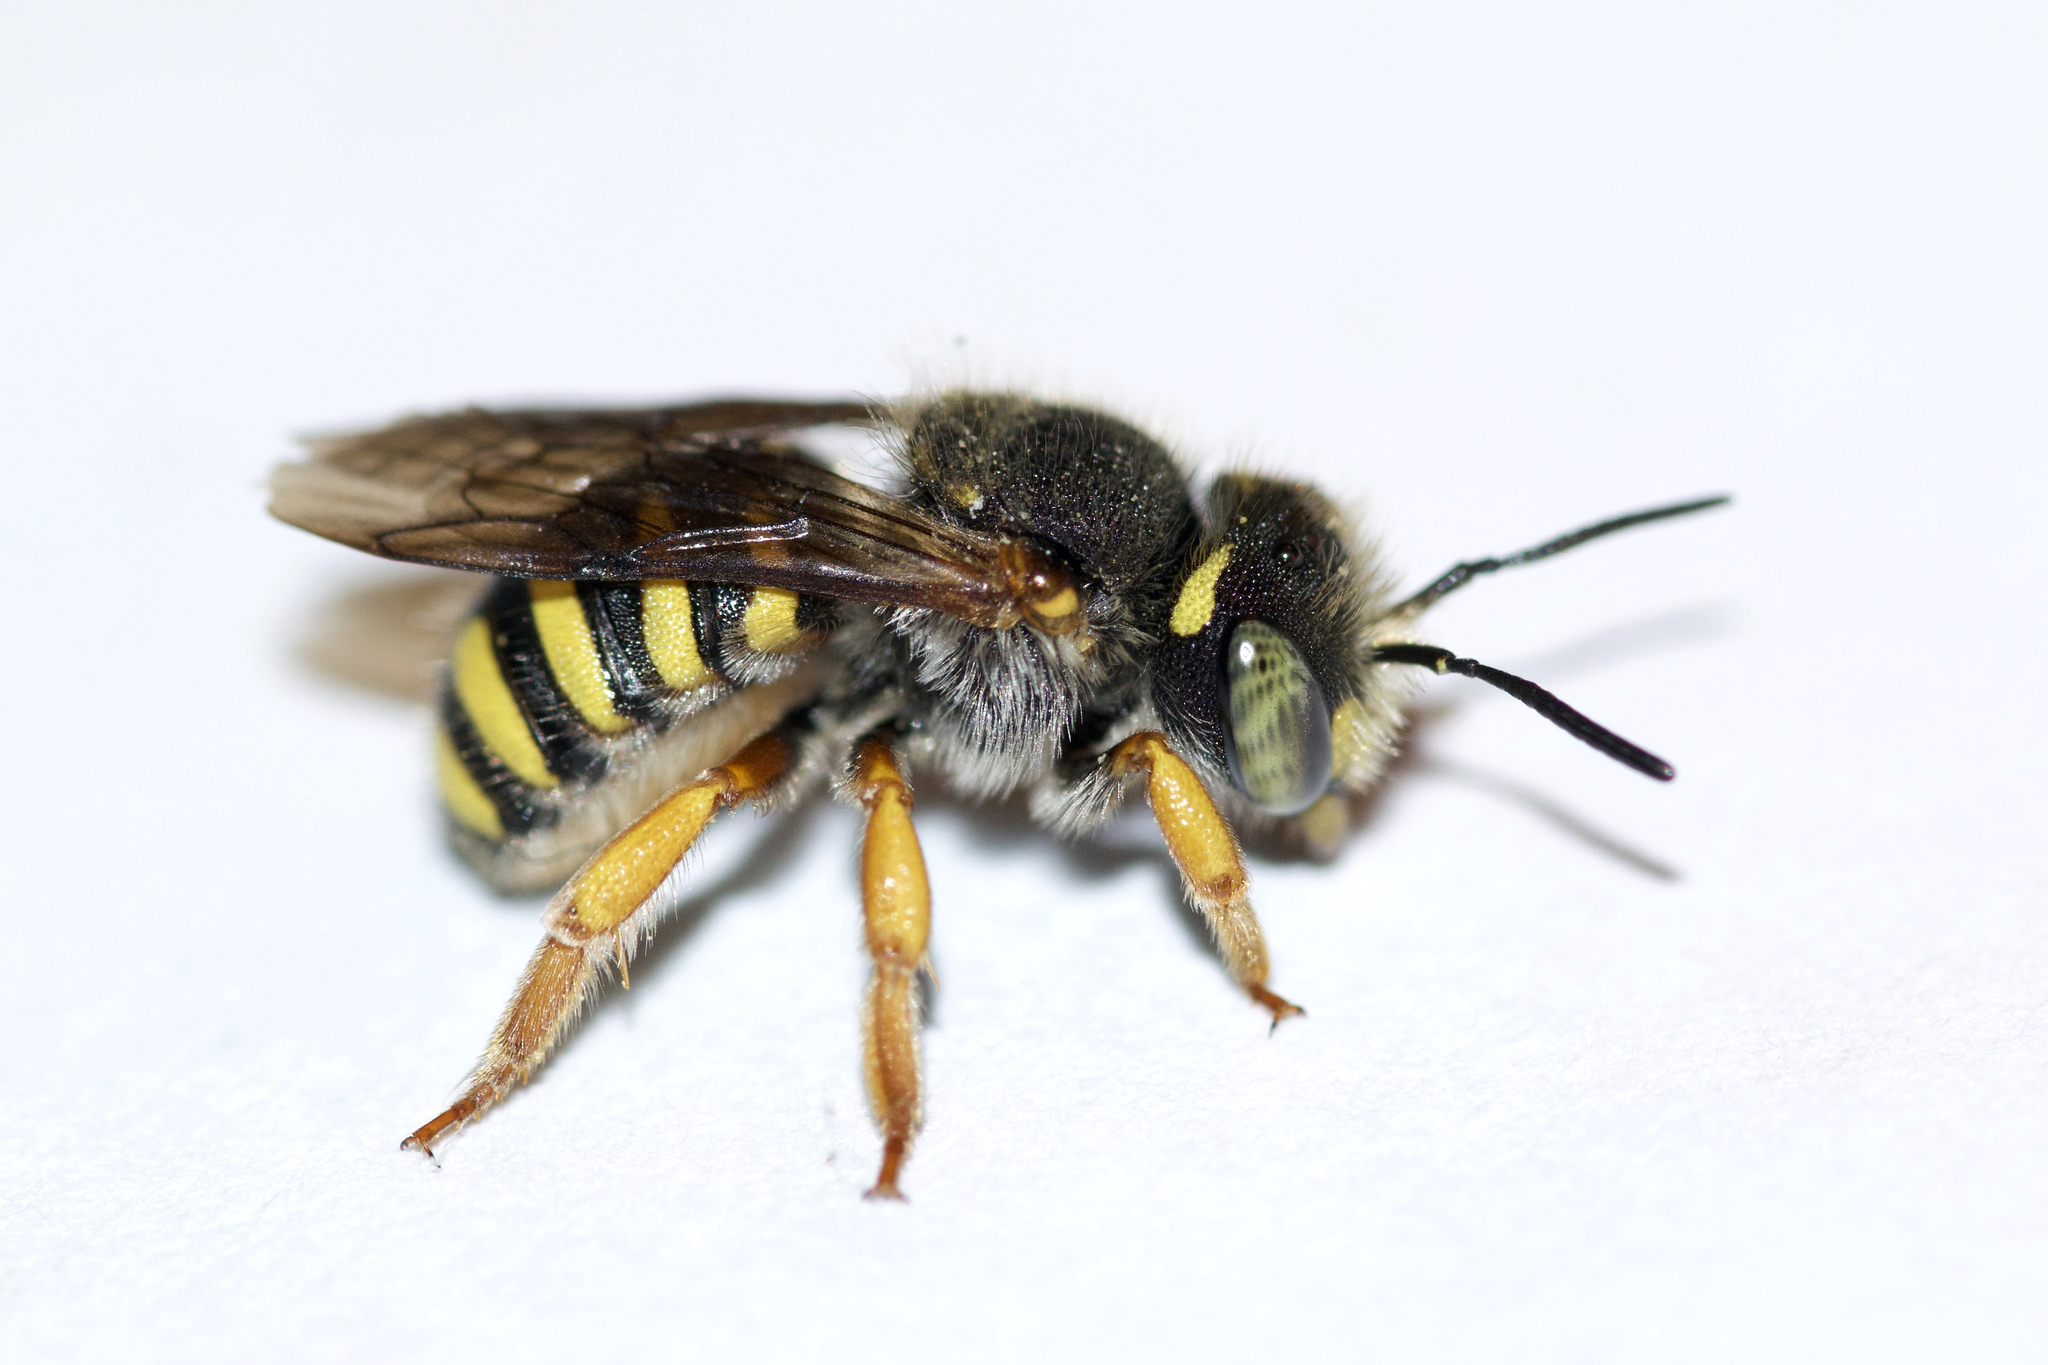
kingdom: Animalia
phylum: Arthropoda
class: Insecta
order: Hymenoptera
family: Megachilidae
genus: Anthidium
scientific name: Anthidium oblongatum
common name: Oblong wool carder bee
